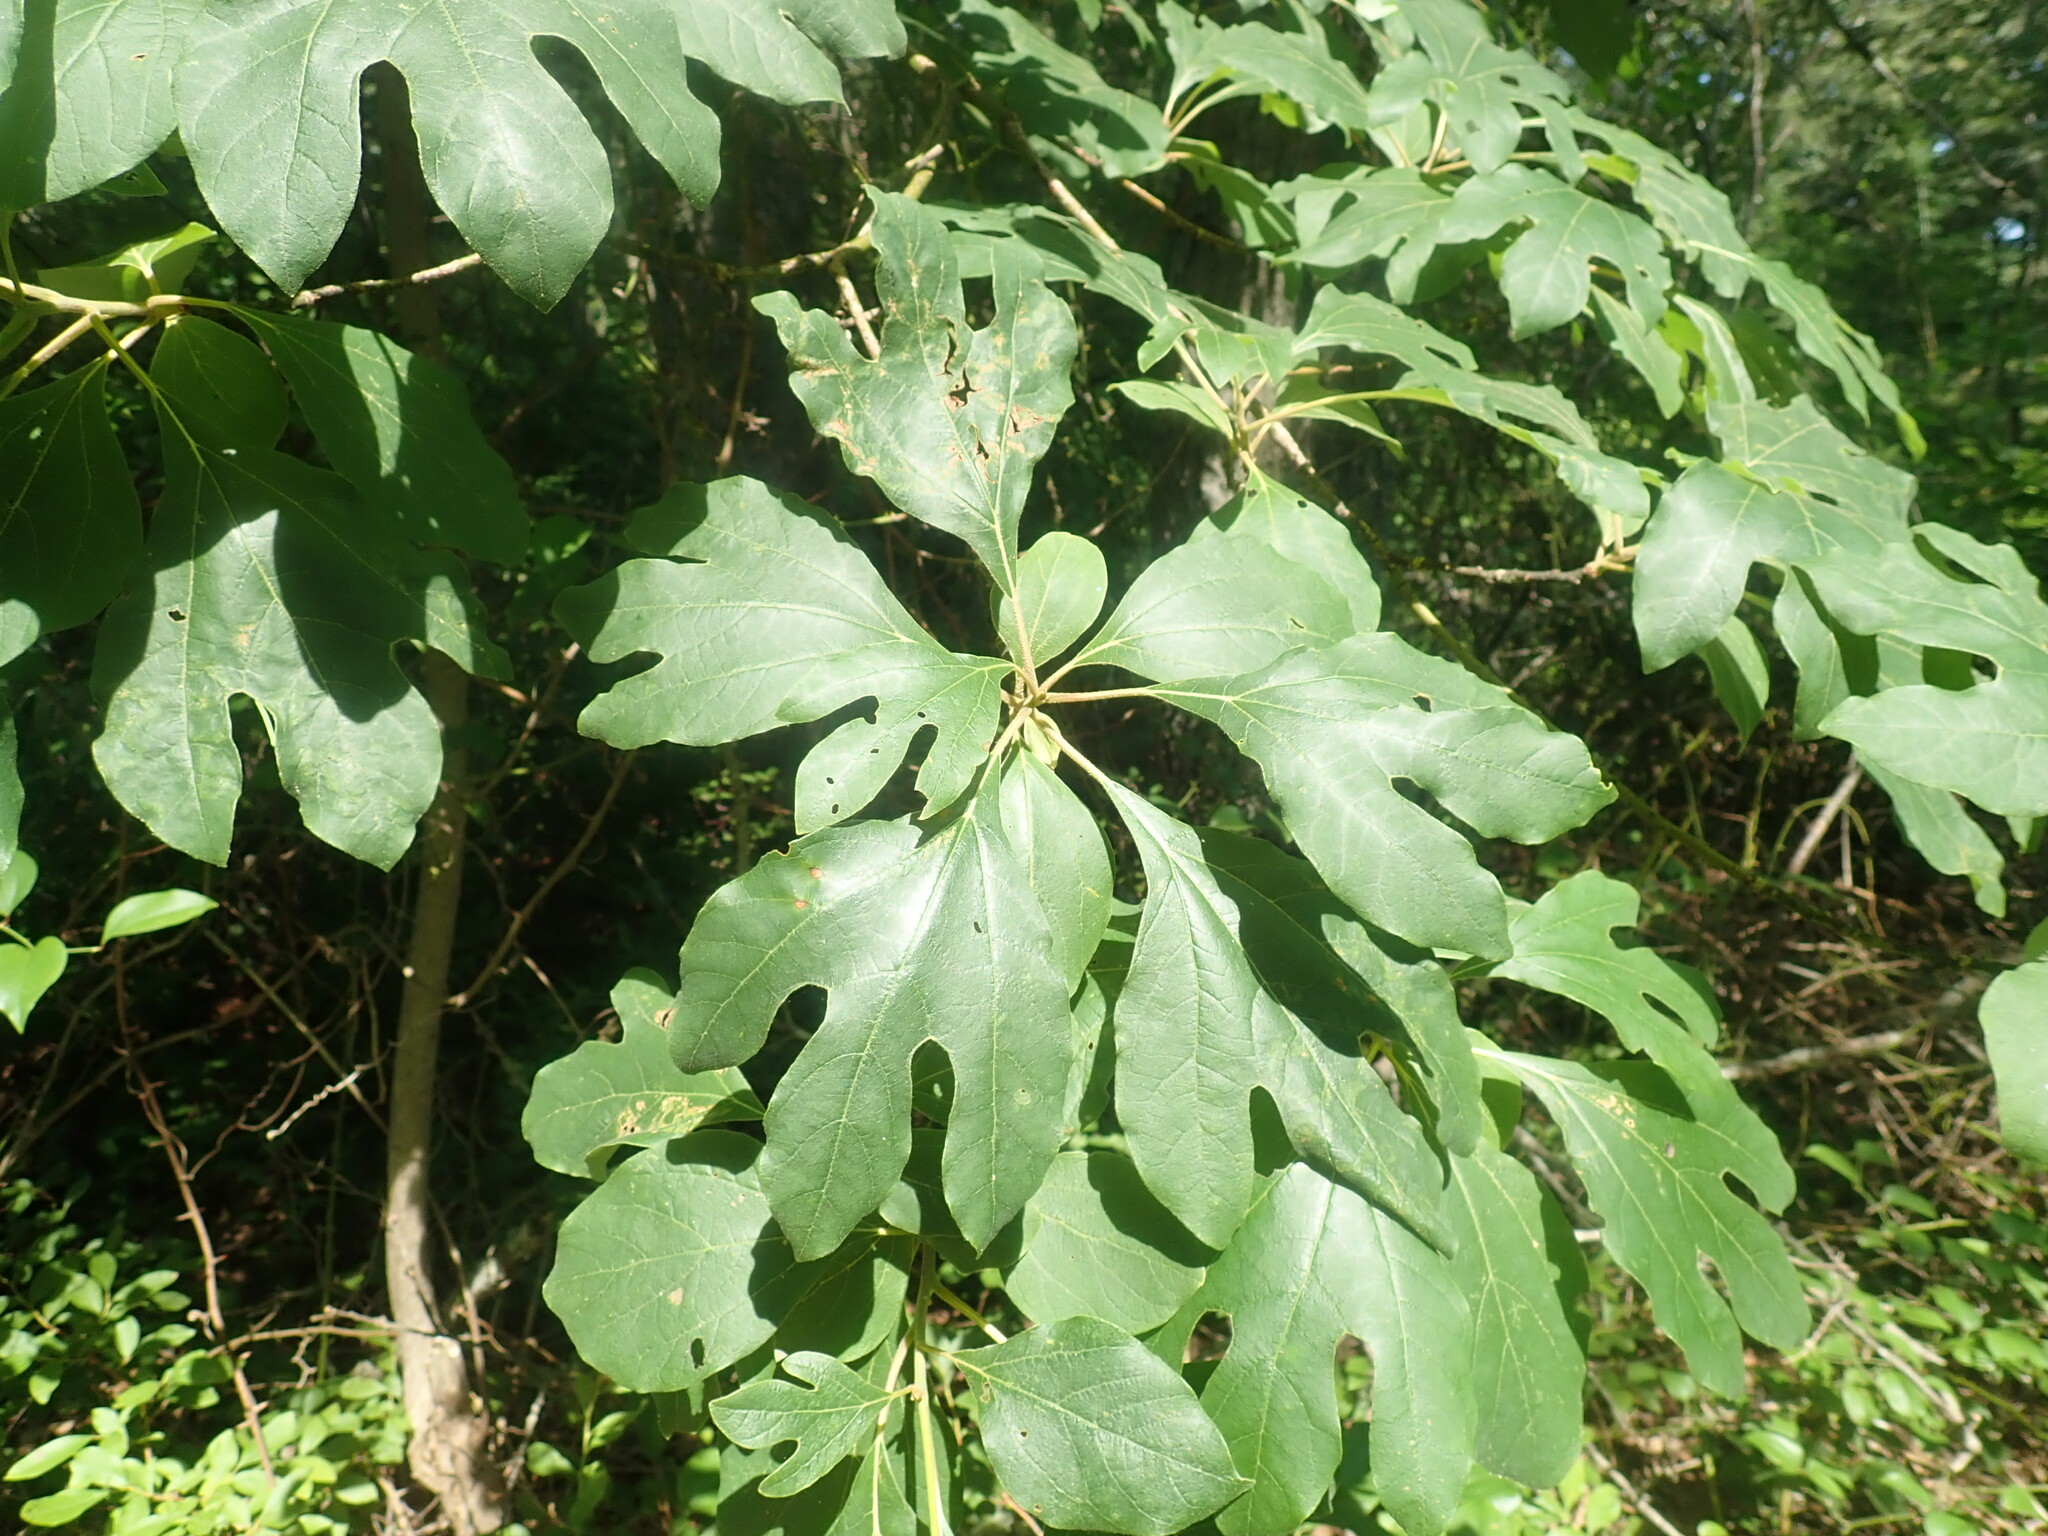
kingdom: Plantae
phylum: Tracheophyta
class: Magnoliopsida
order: Laurales
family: Lauraceae
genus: Sassafras
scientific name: Sassafras albidum
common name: Sassafras
